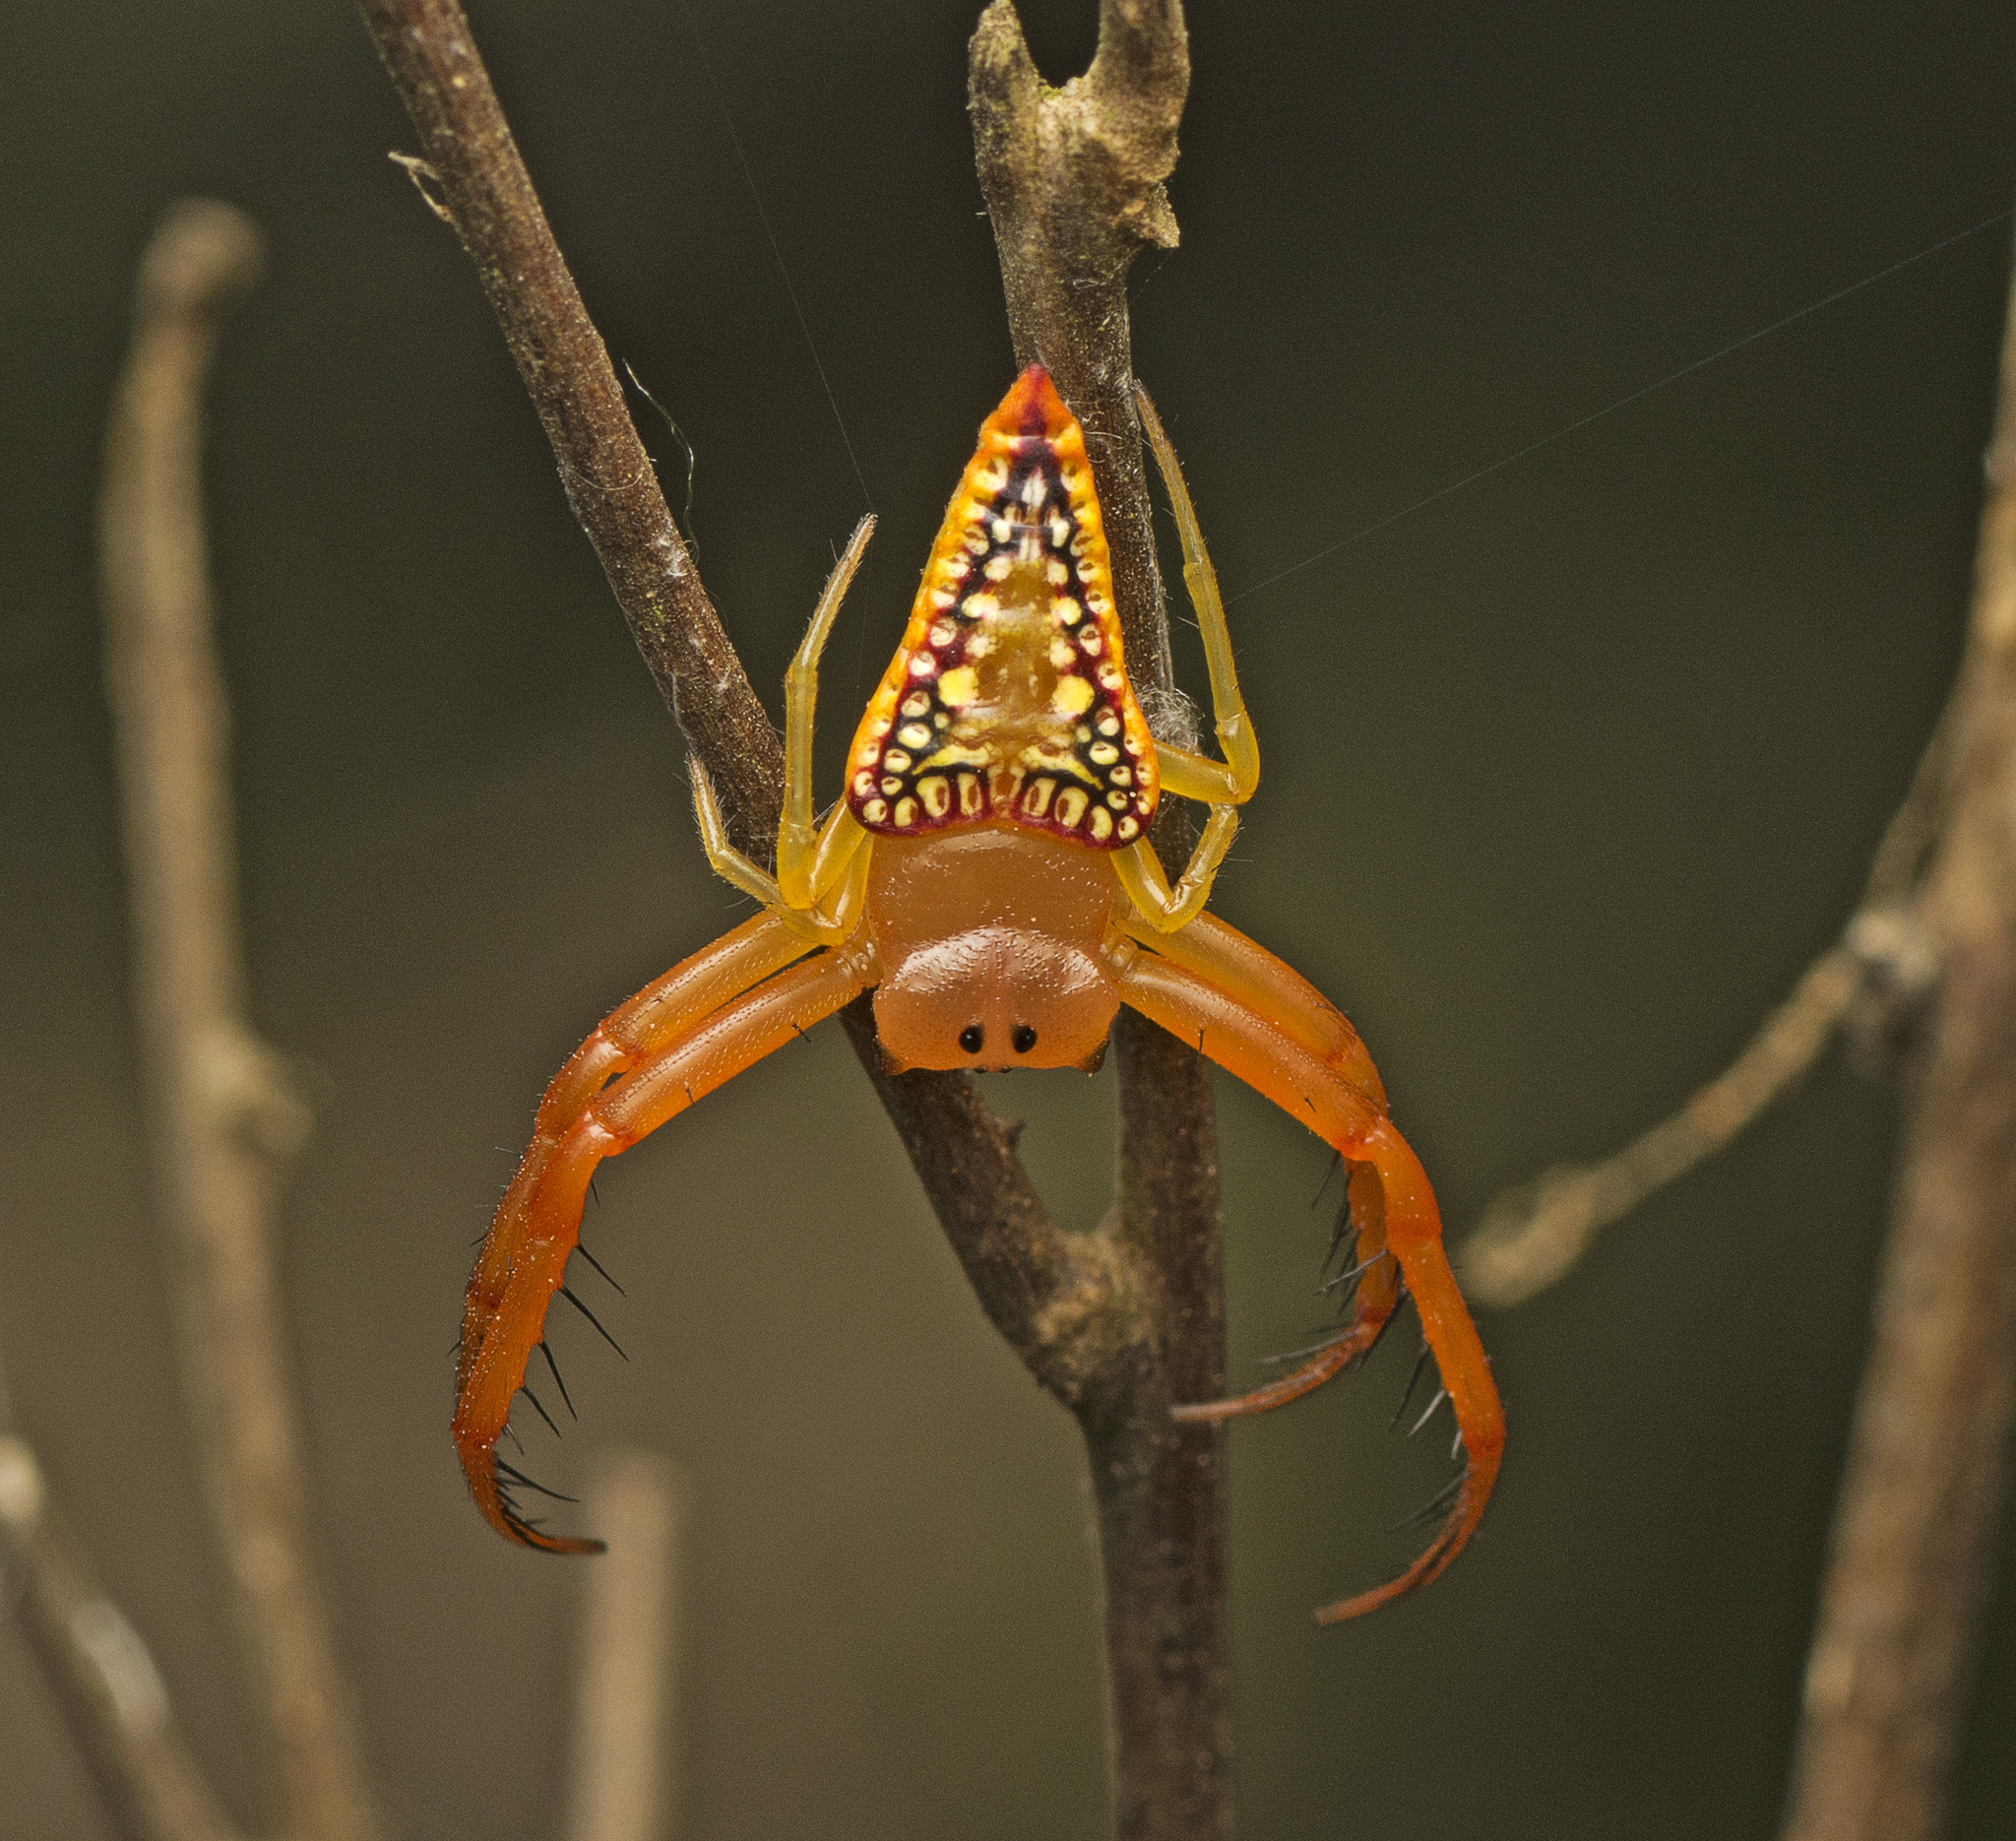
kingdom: Animalia
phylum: Arthropoda
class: Arachnida
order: Araneae
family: Arkyidae
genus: Arkys
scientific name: Arkys walckenaeri
